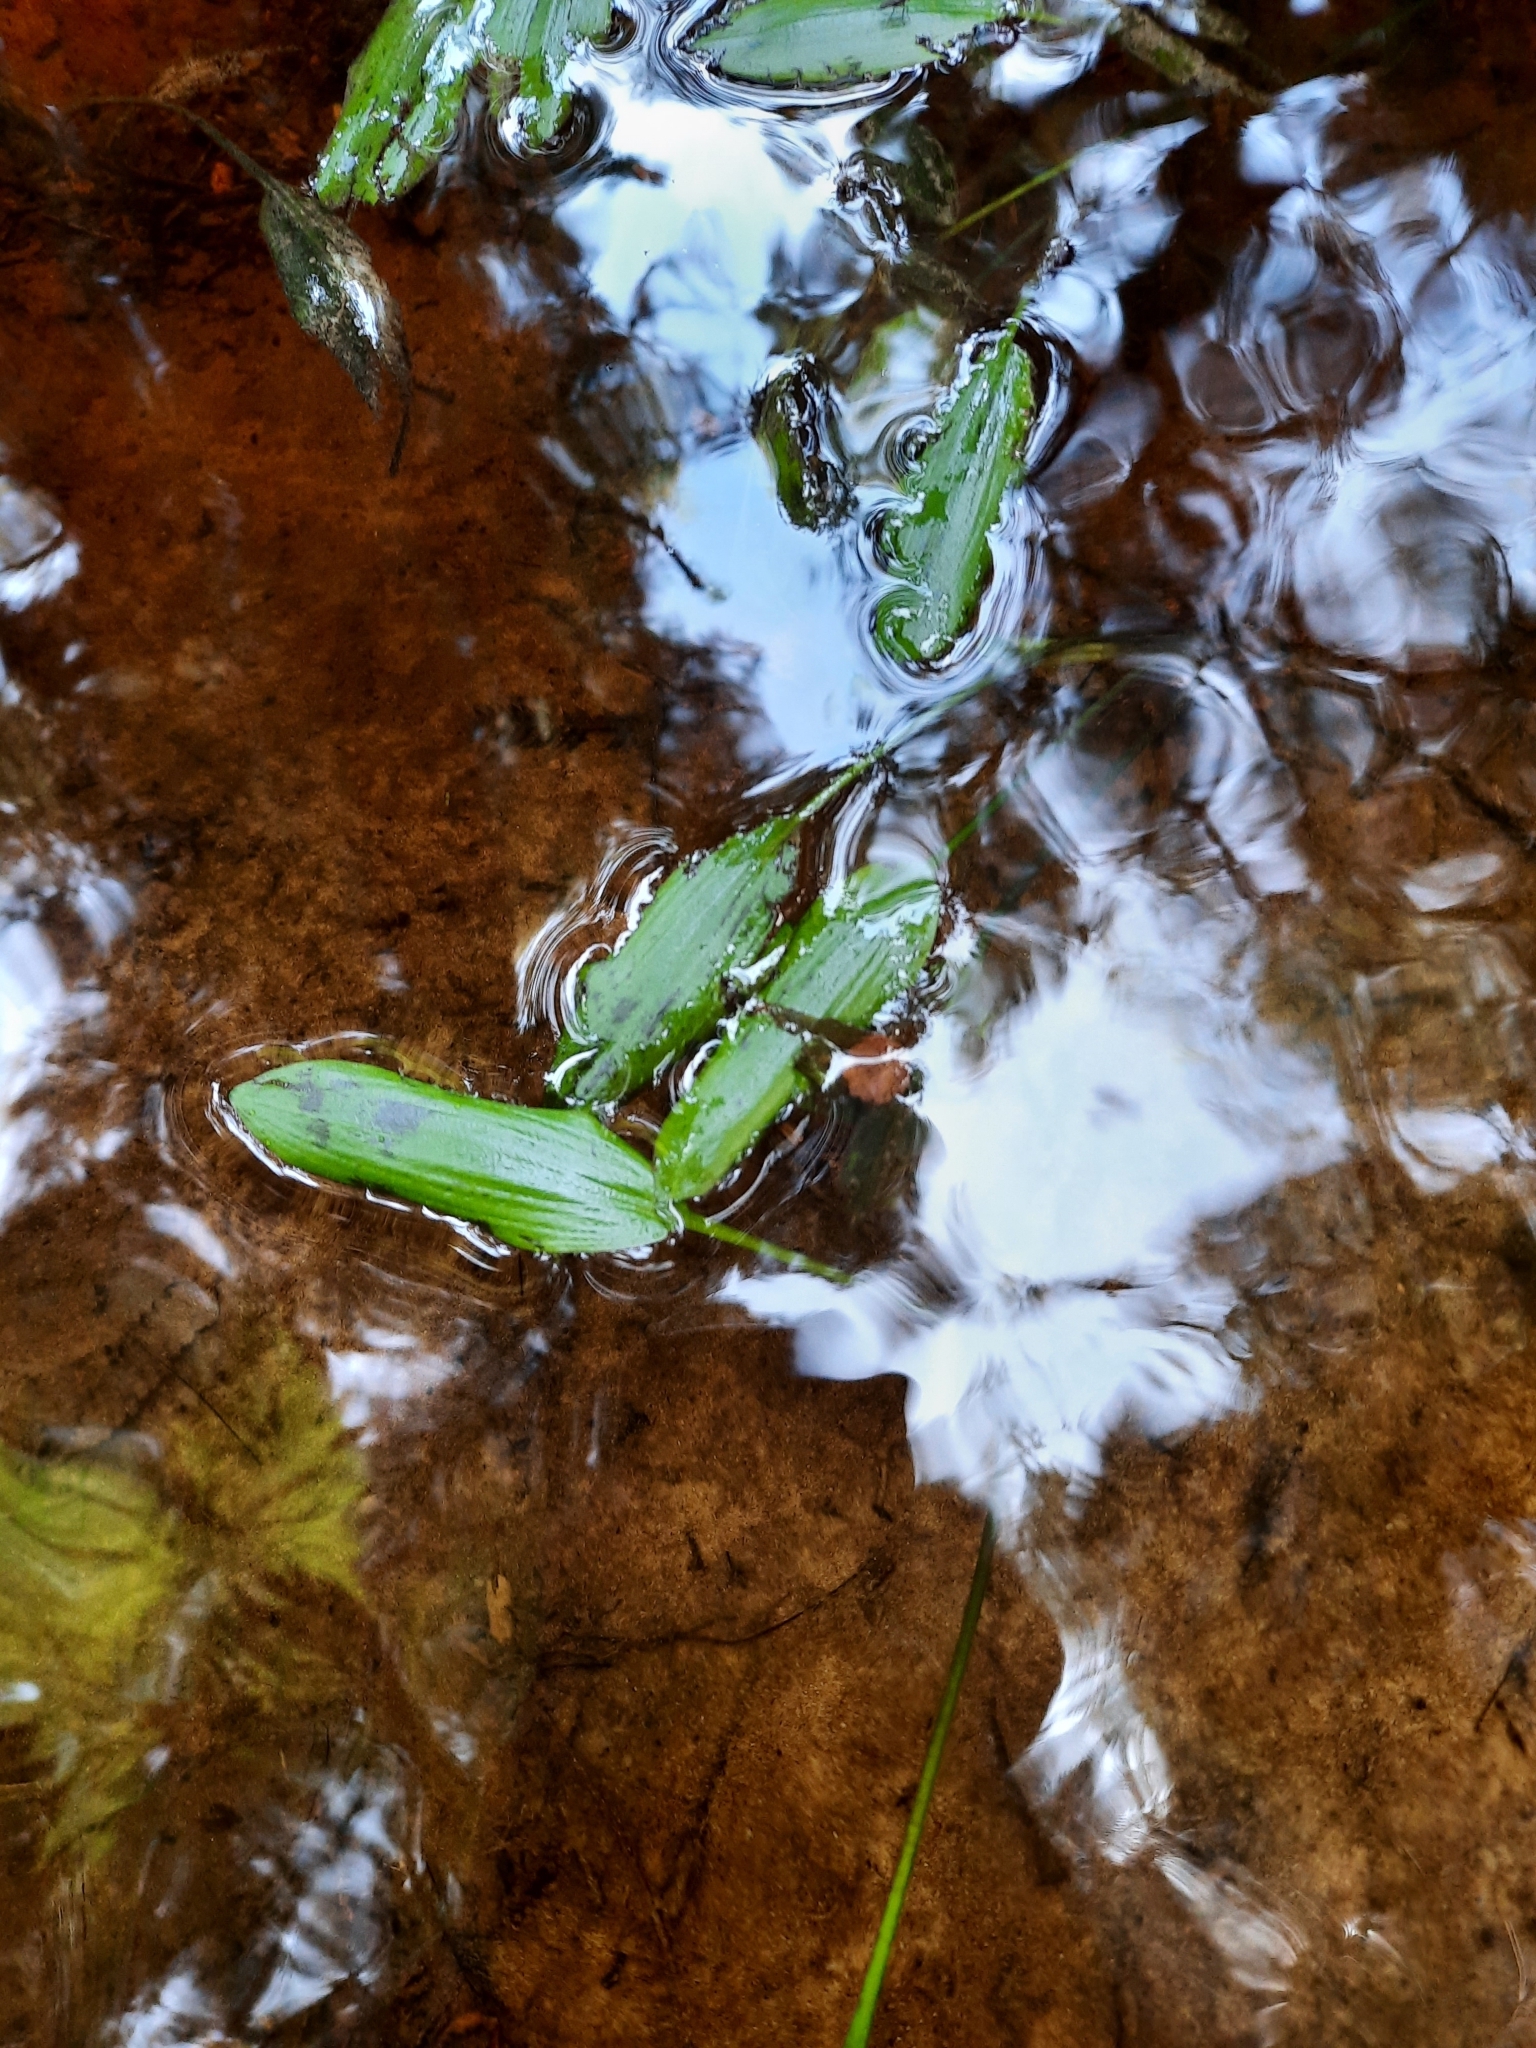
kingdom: Plantae
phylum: Tracheophyta
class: Liliopsida
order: Alismatales
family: Aponogetonaceae
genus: Aponogeton
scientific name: Aponogeton distachyos
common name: Cape-pondweed
